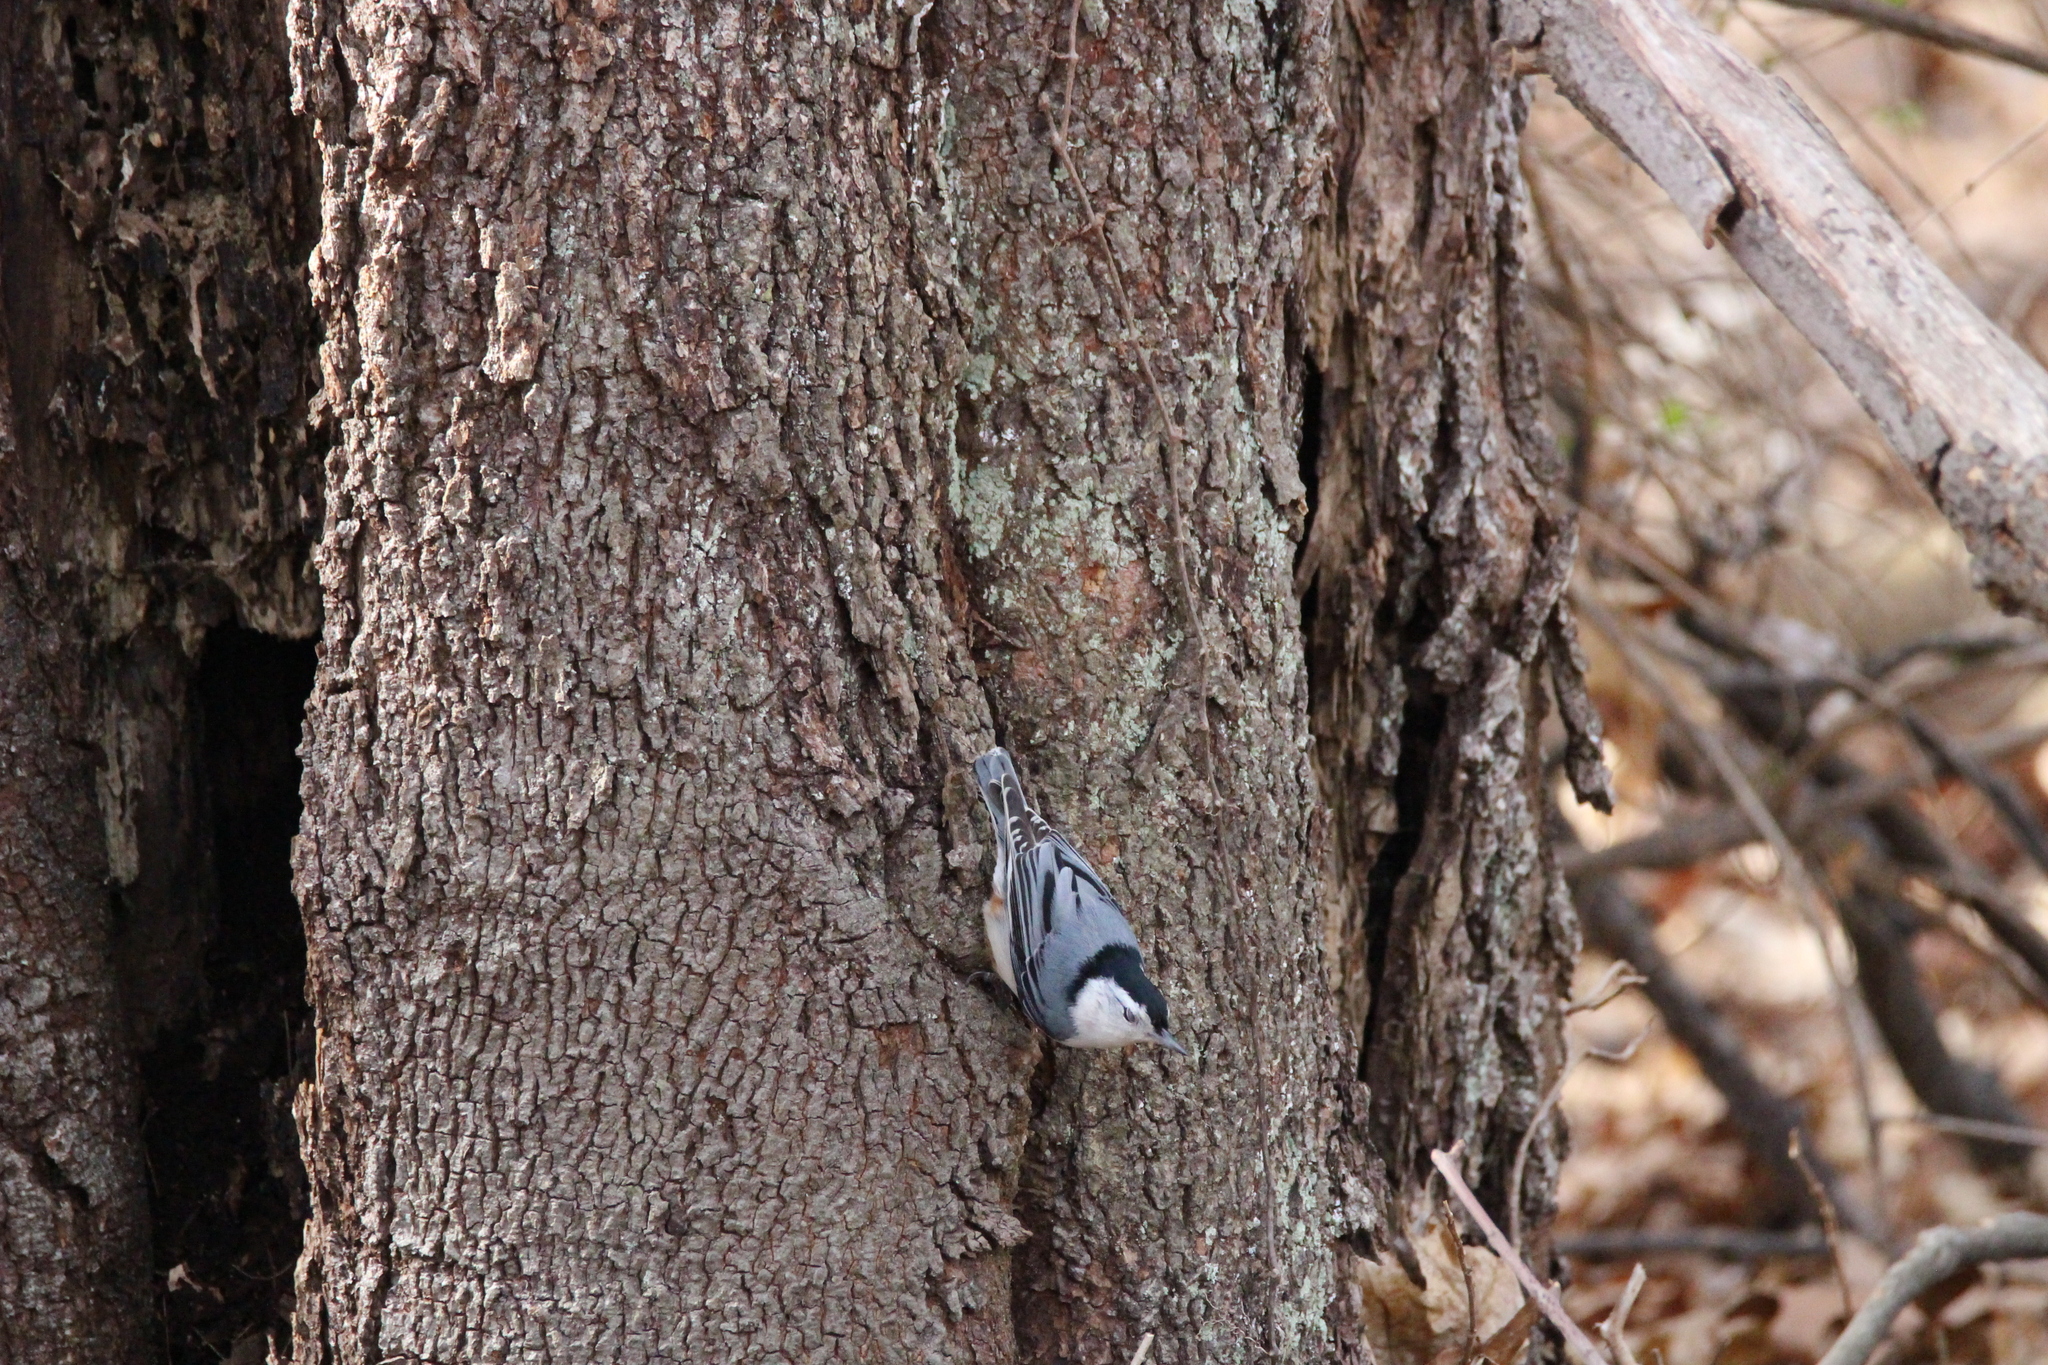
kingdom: Animalia
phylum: Chordata
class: Aves
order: Passeriformes
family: Sittidae
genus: Sitta
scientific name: Sitta carolinensis
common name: White-breasted nuthatch
